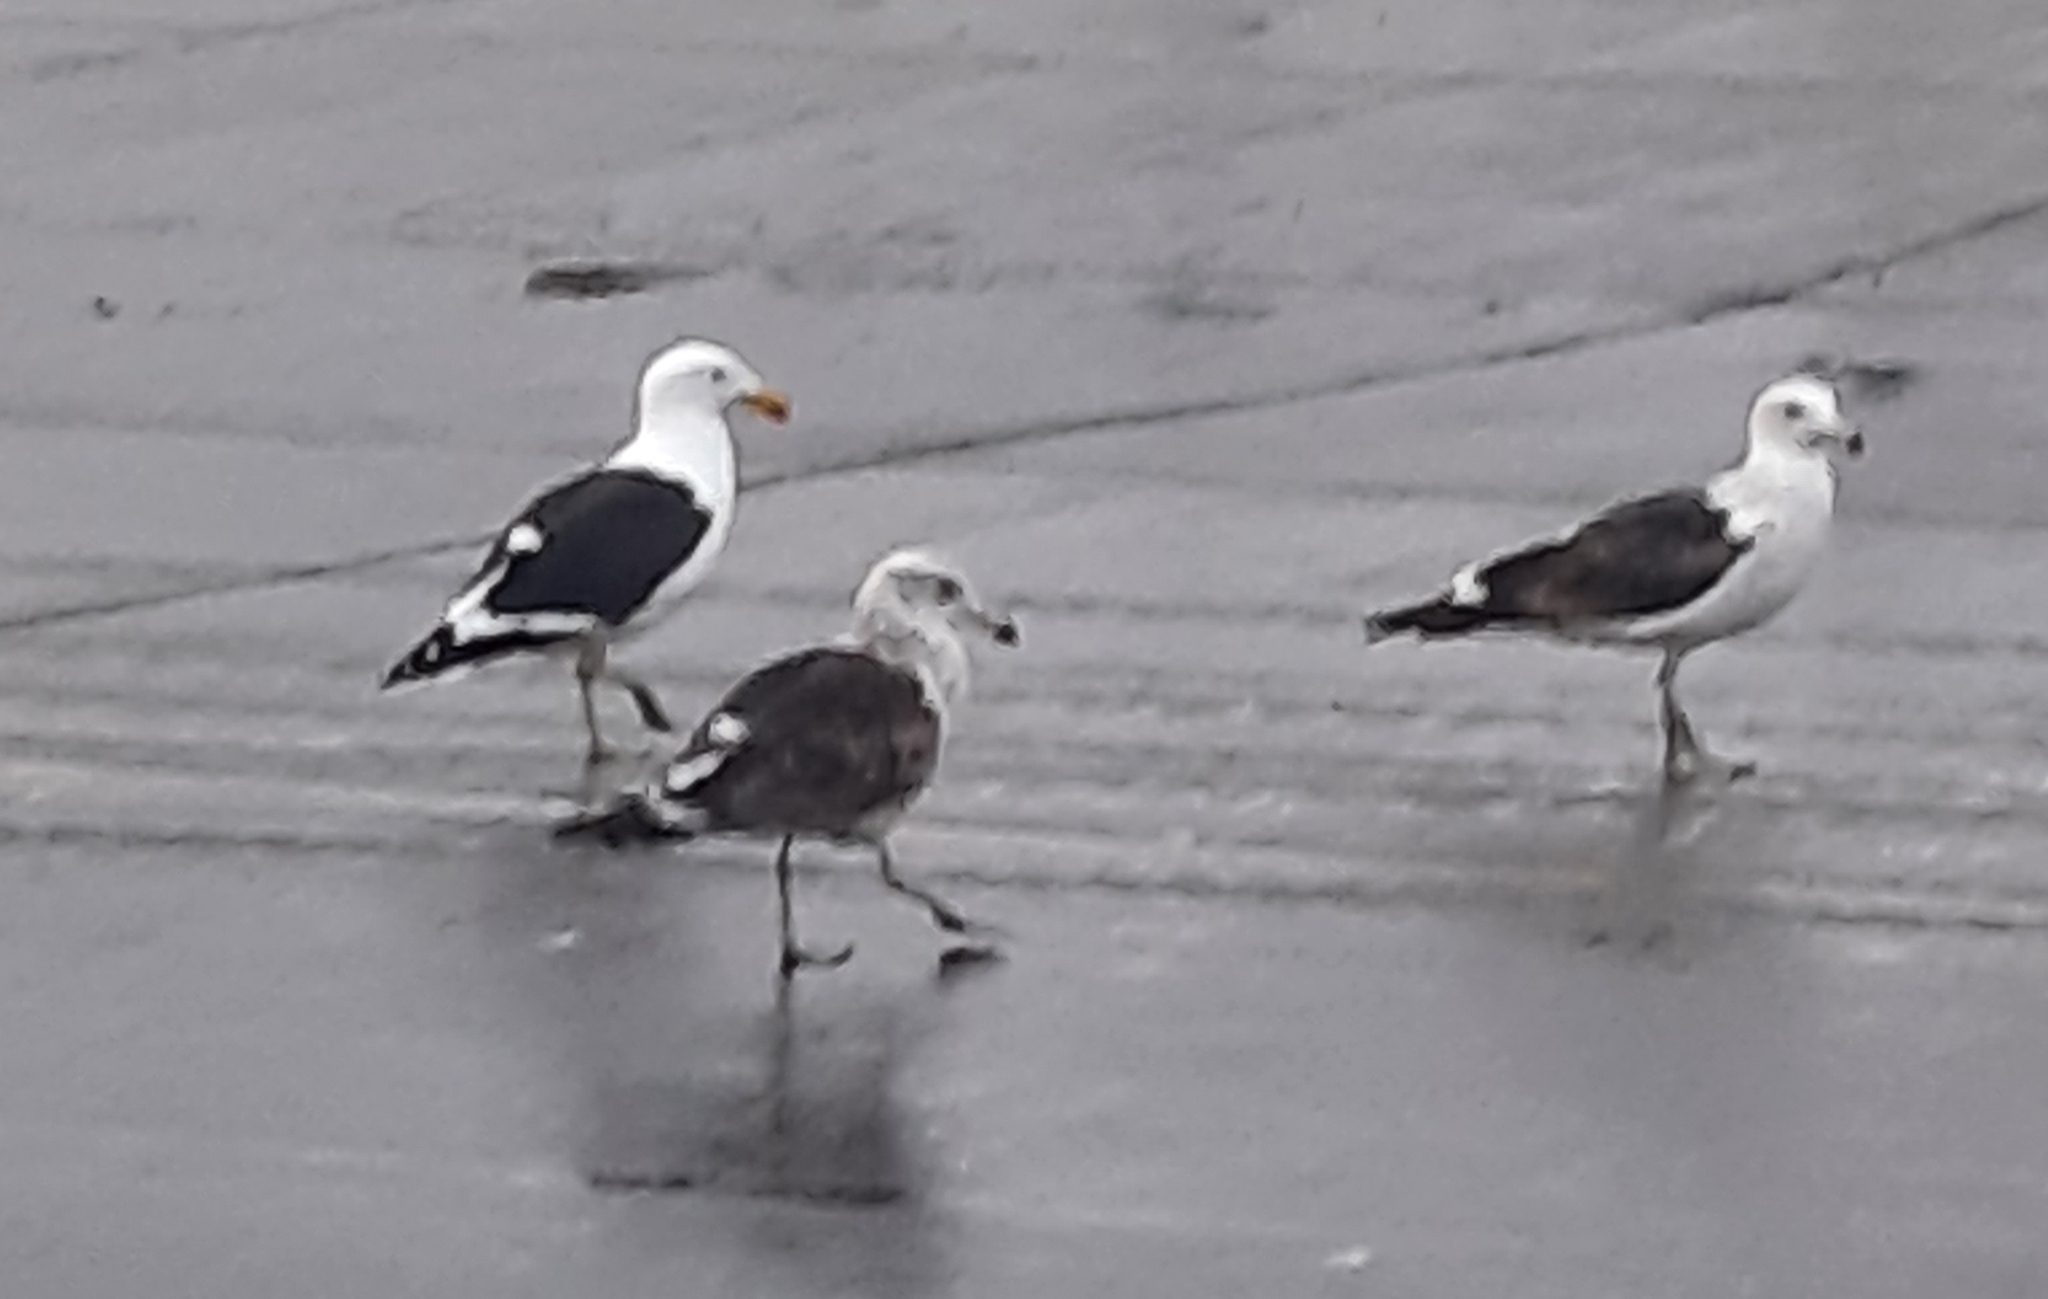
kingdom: Animalia
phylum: Chordata
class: Aves
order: Charadriiformes
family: Laridae
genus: Larus
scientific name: Larus dominicanus
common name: Kelp gull
